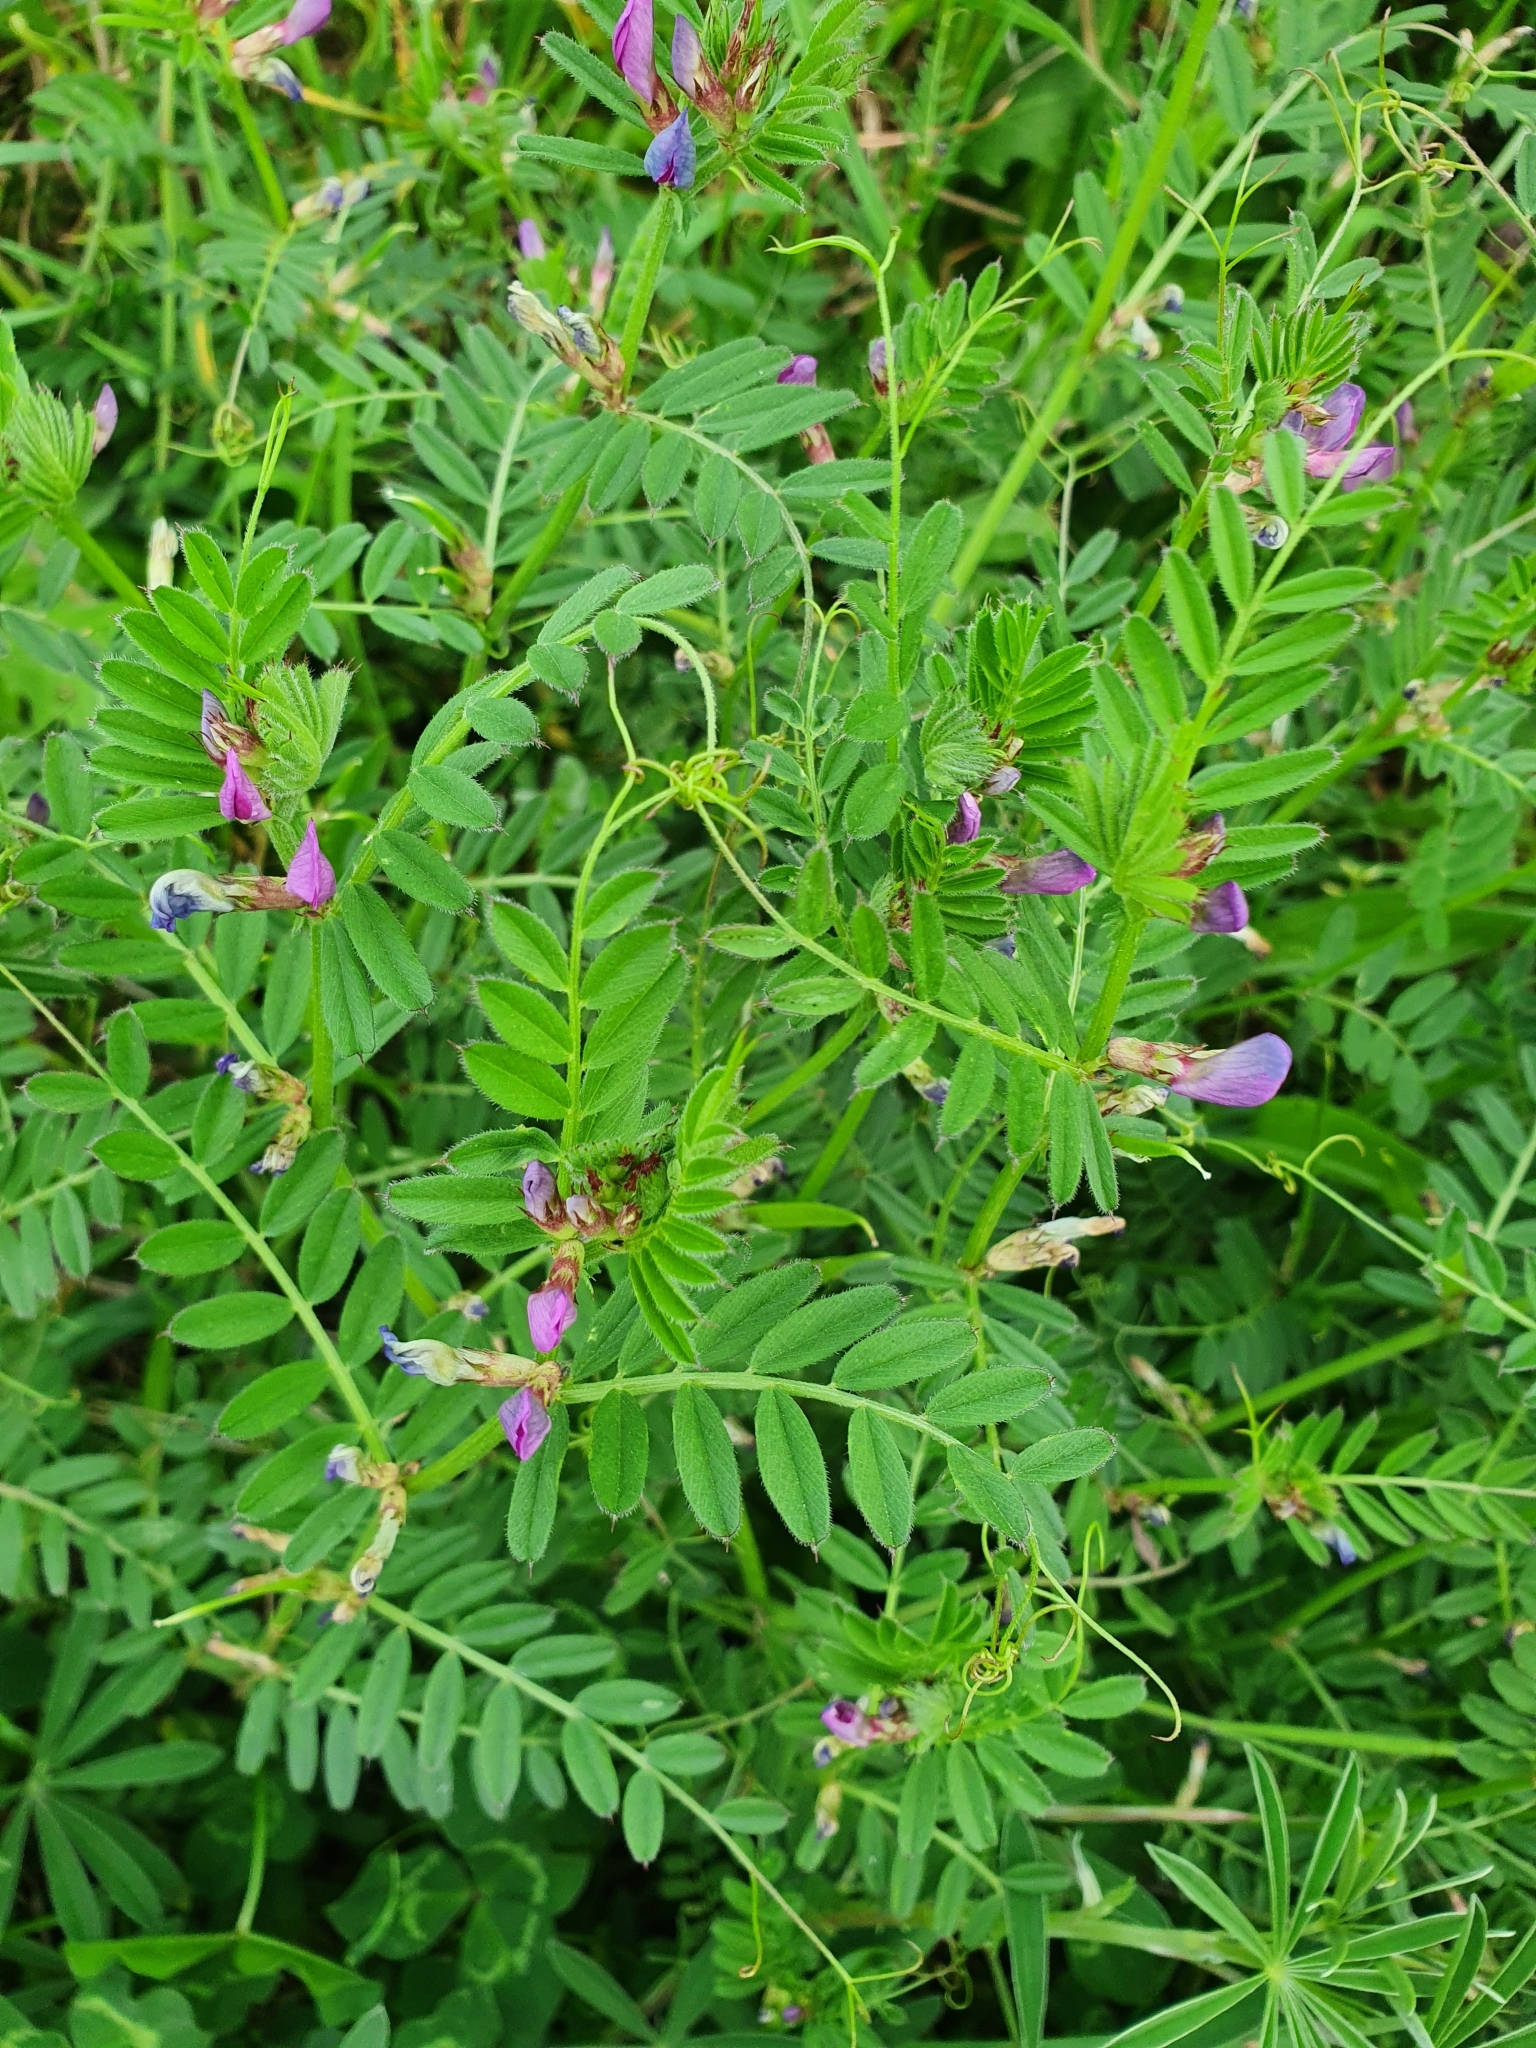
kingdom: Plantae
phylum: Tracheophyta
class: Magnoliopsida
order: Fabales
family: Fabaceae
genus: Vicia
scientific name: Vicia sativa
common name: Garden vetch
